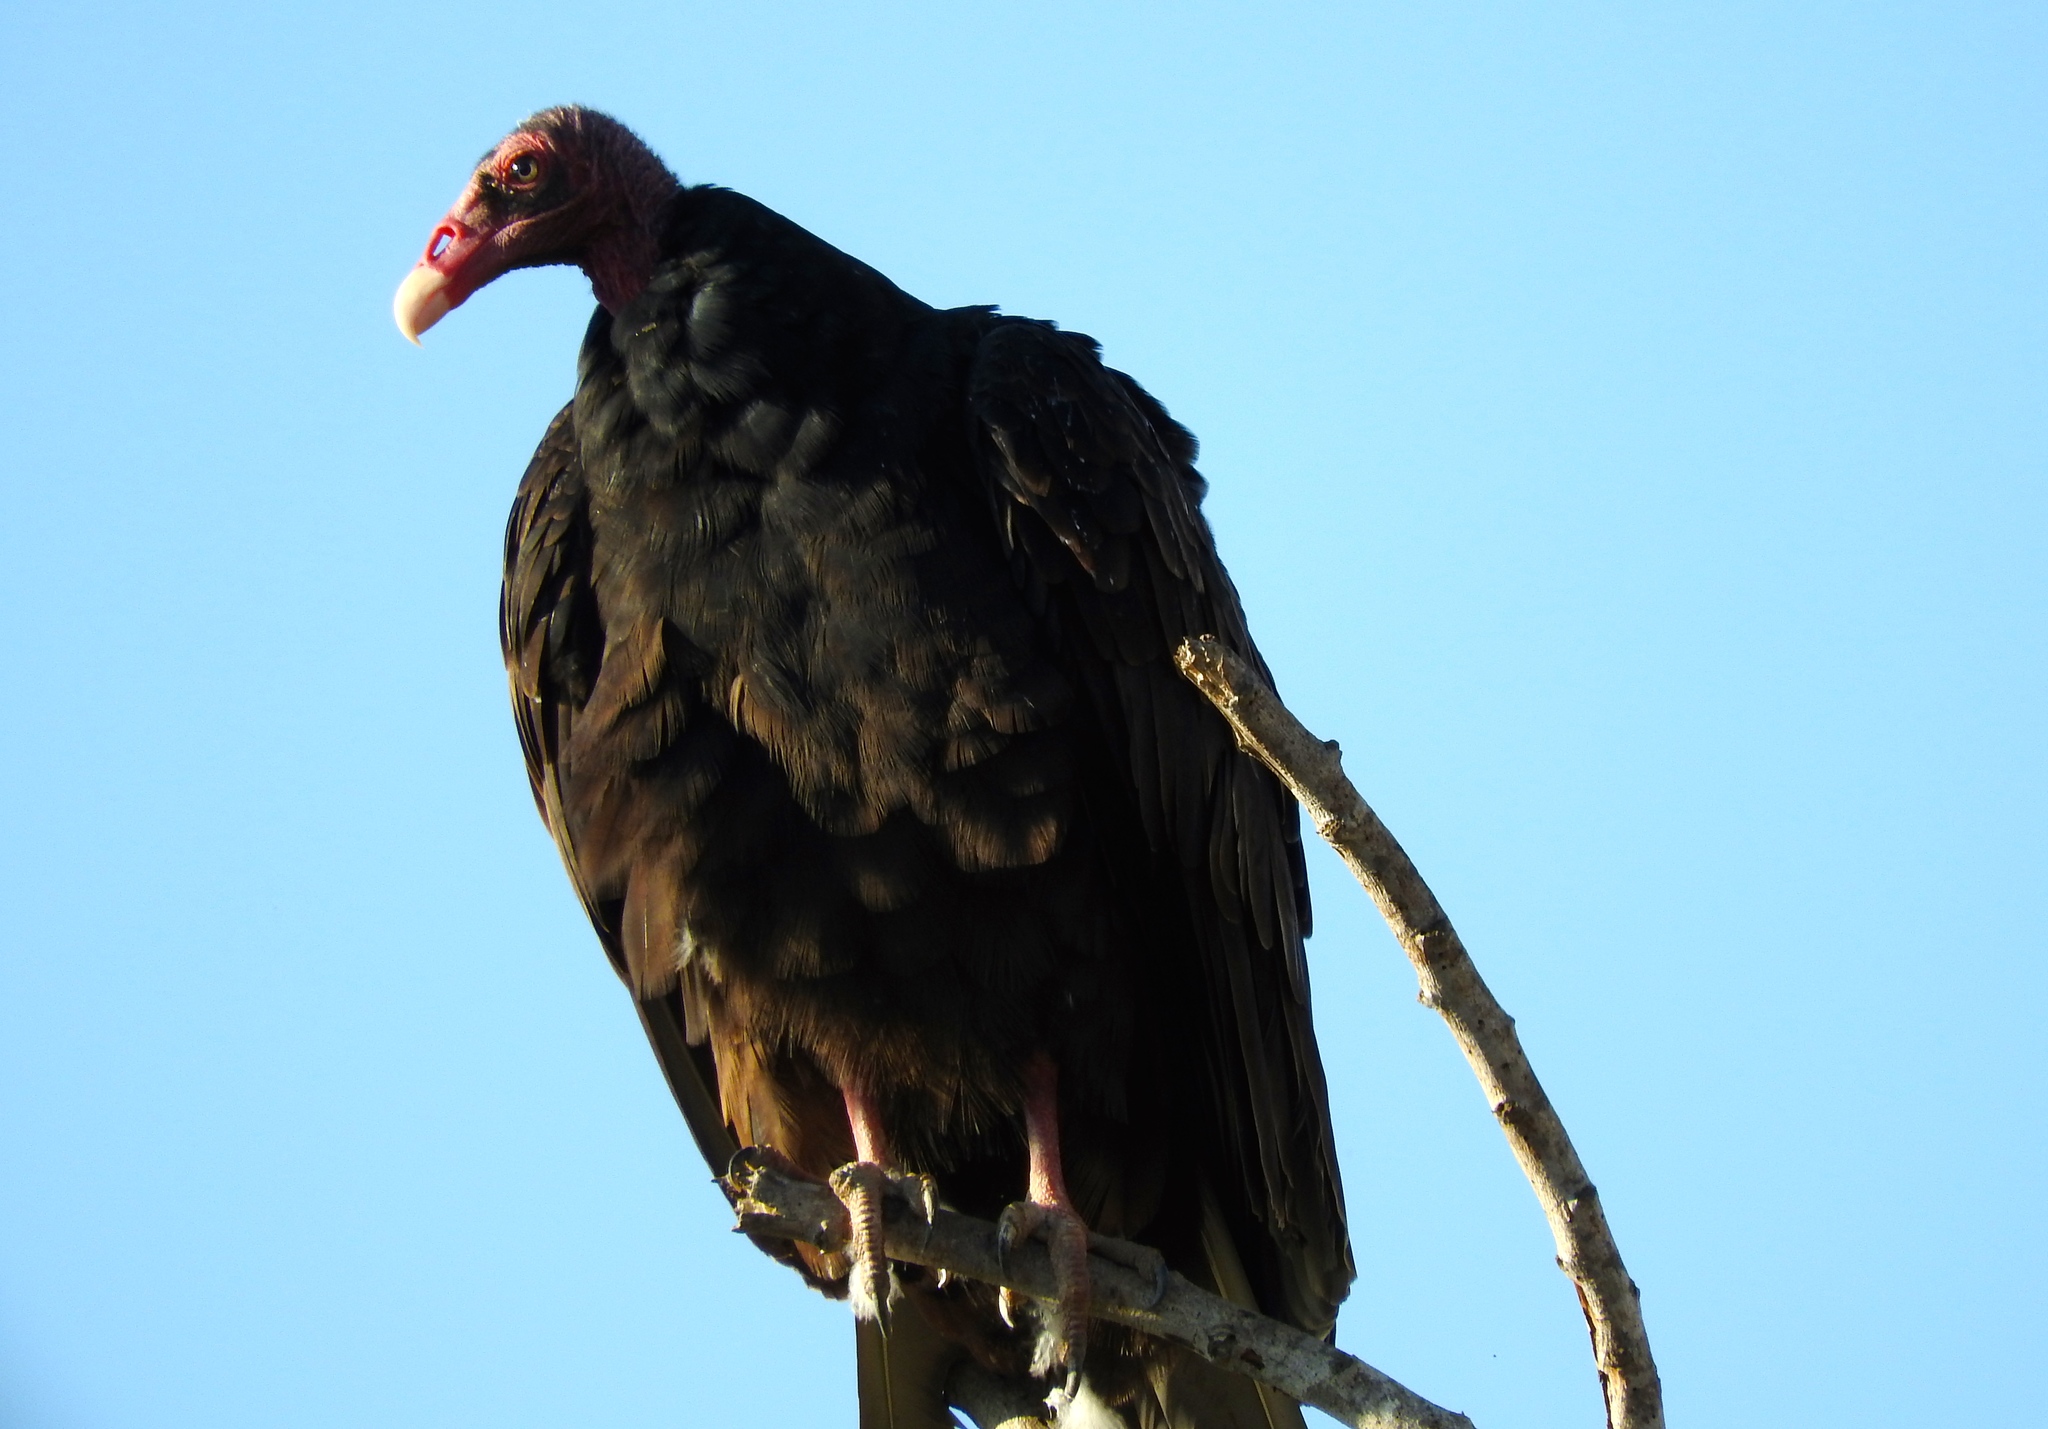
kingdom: Animalia
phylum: Chordata
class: Aves
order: Accipitriformes
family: Cathartidae
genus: Cathartes
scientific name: Cathartes aura
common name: Turkey vulture
